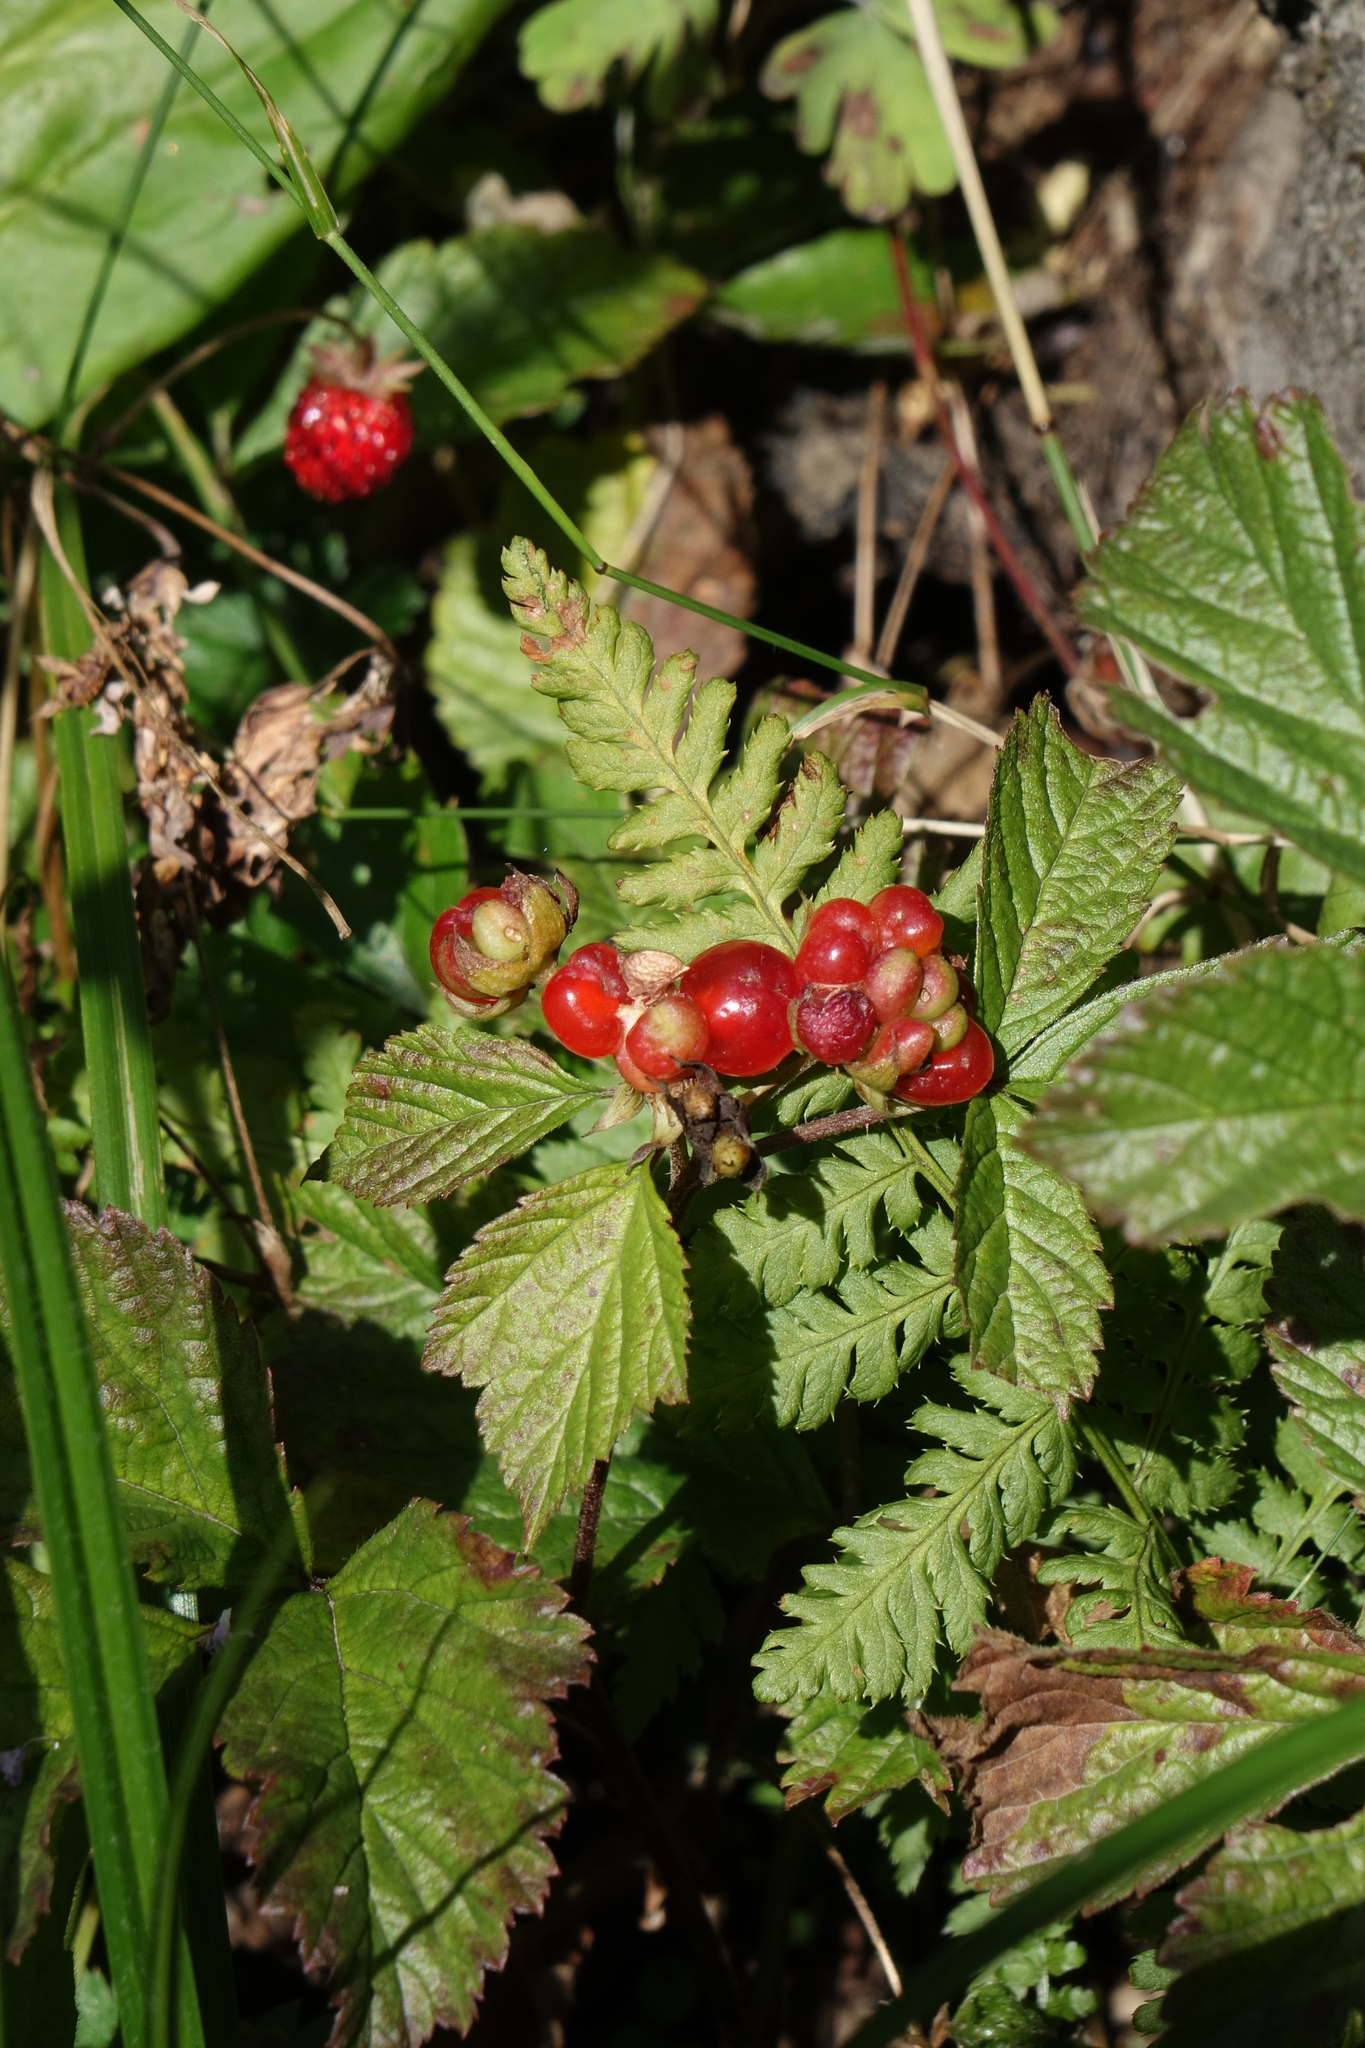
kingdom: Plantae
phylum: Tracheophyta
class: Magnoliopsida
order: Rosales
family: Rosaceae
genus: Rubus
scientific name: Rubus saxatilis
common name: Stone bramble
